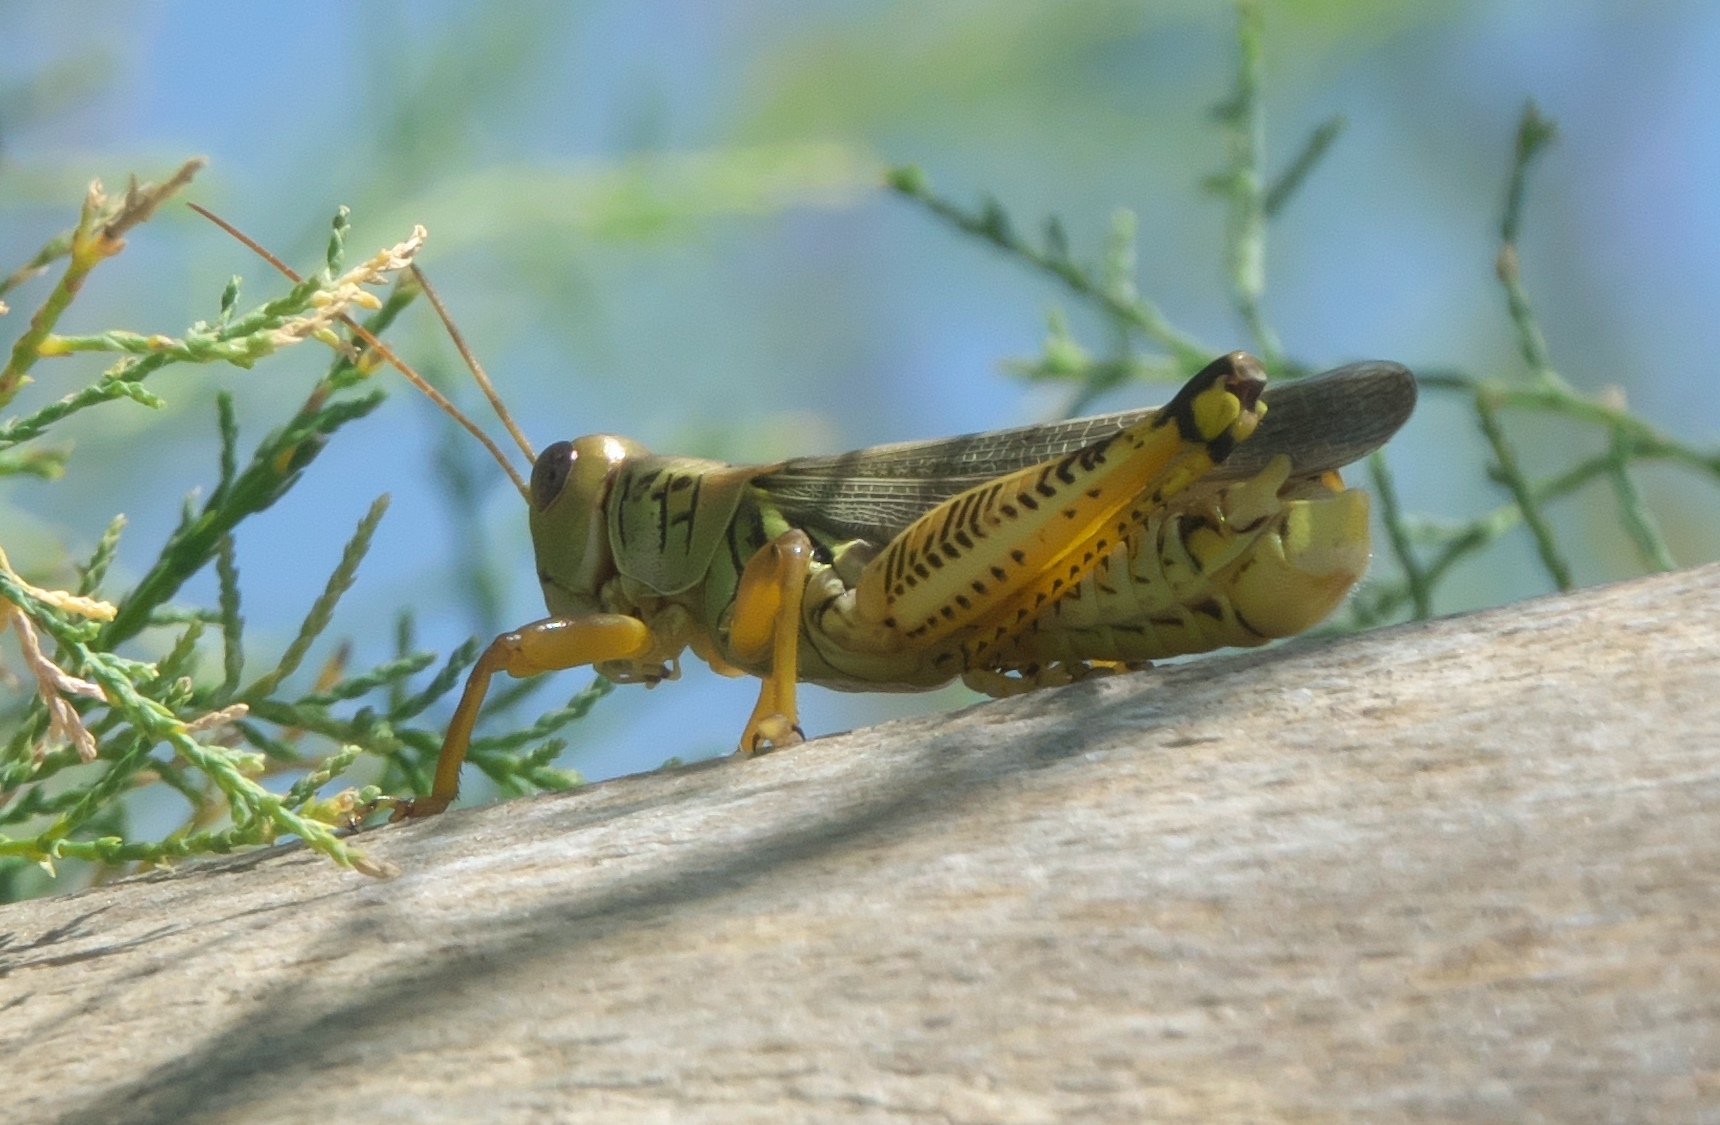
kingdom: Animalia
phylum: Arthropoda
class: Insecta
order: Orthoptera
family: Acrididae
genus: Melanoplus
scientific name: Melanoplus differentialis
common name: Differential grasshopper
